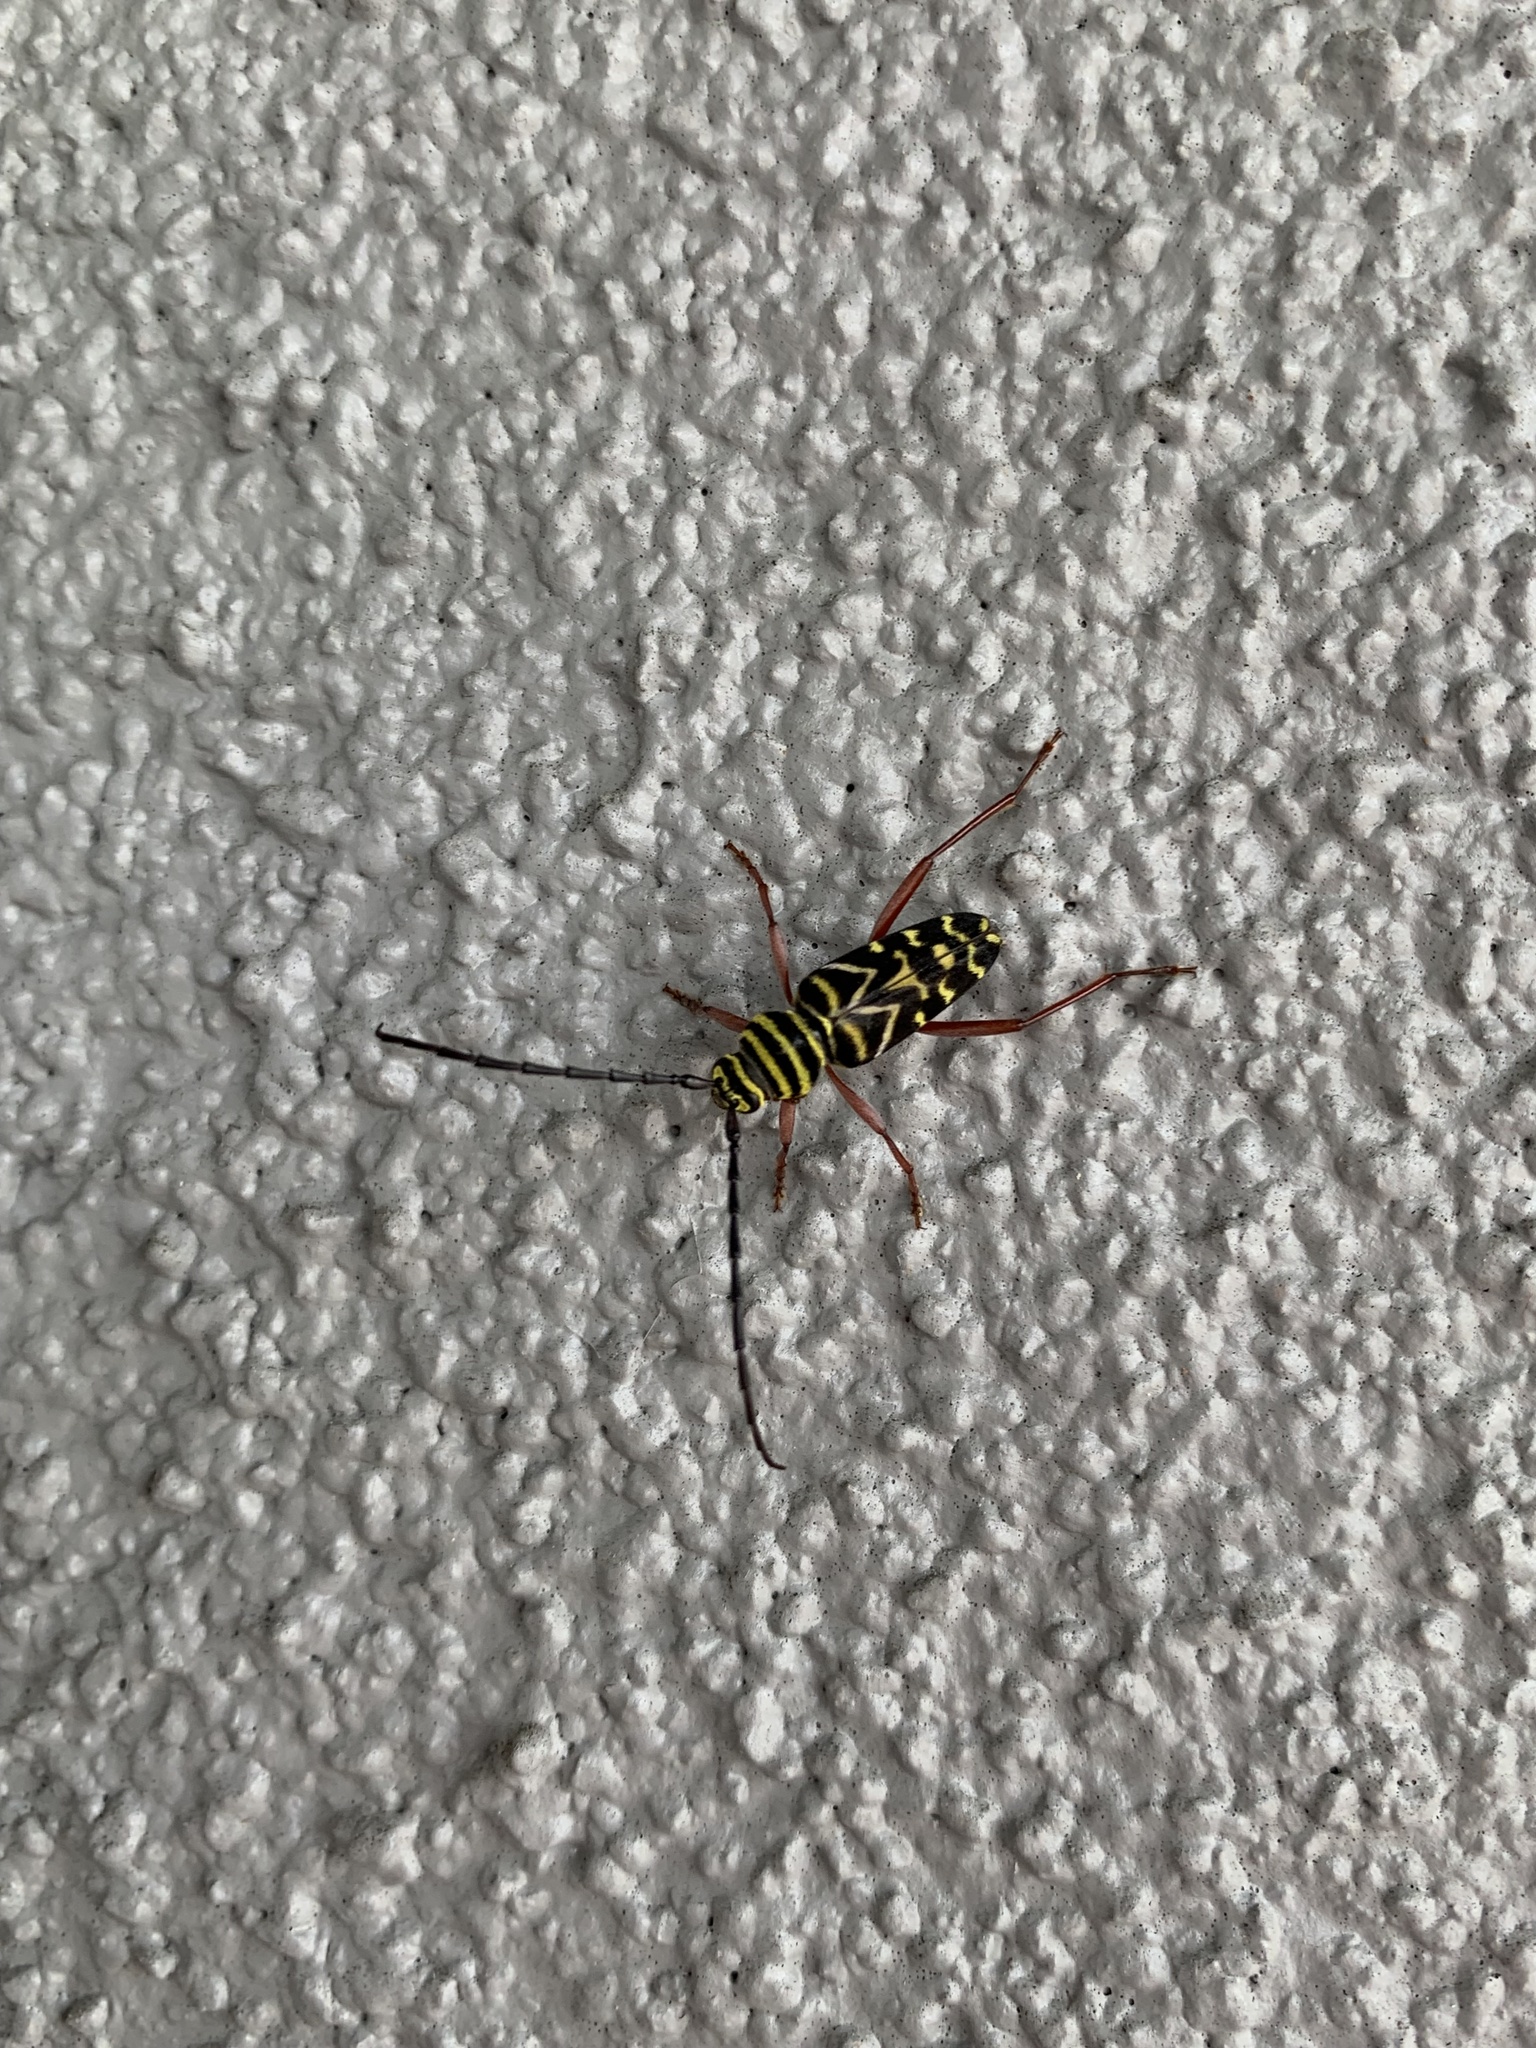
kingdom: Animalia
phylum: Arthropoda
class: Insecta
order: Coleoptera
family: Cerambycidae
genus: Megacyllene
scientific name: Megacyllene caryae
